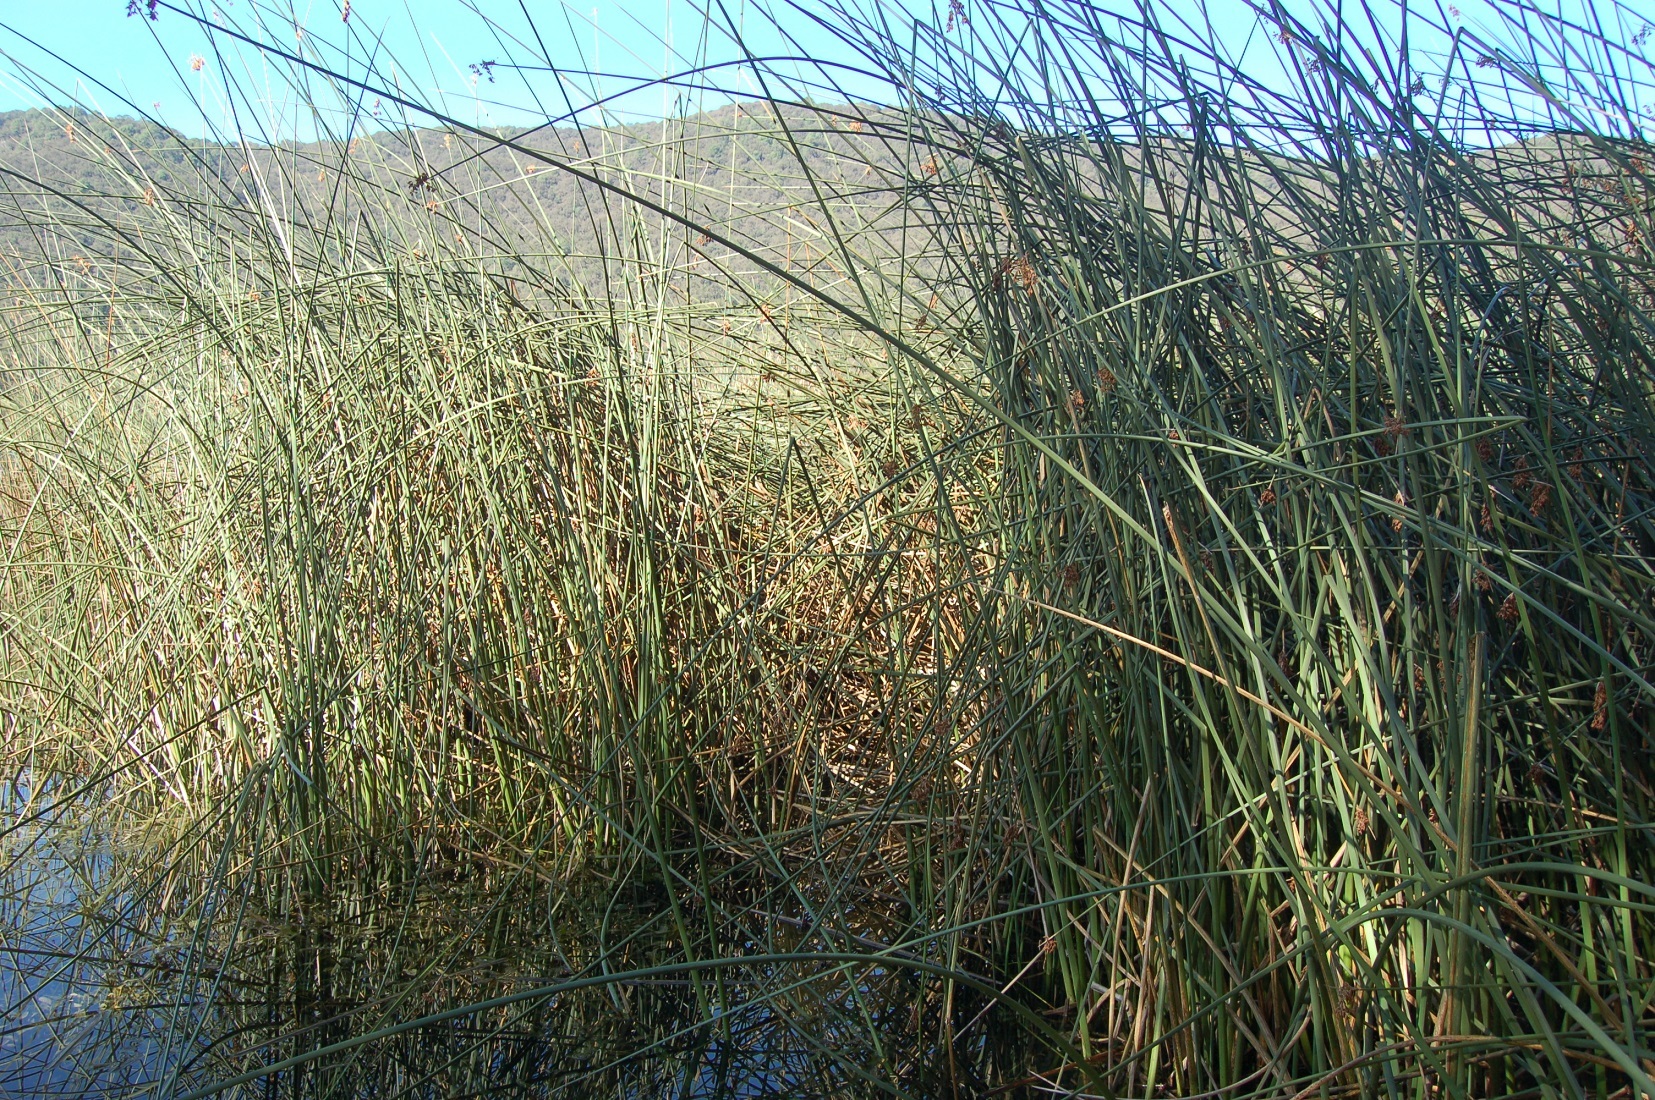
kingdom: Plantae
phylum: Tracheophyta
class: Liliopsida
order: Poales
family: Cyperaceae
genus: Schoenoplectus
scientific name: Schoenoplectus californicus
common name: California bulrush
